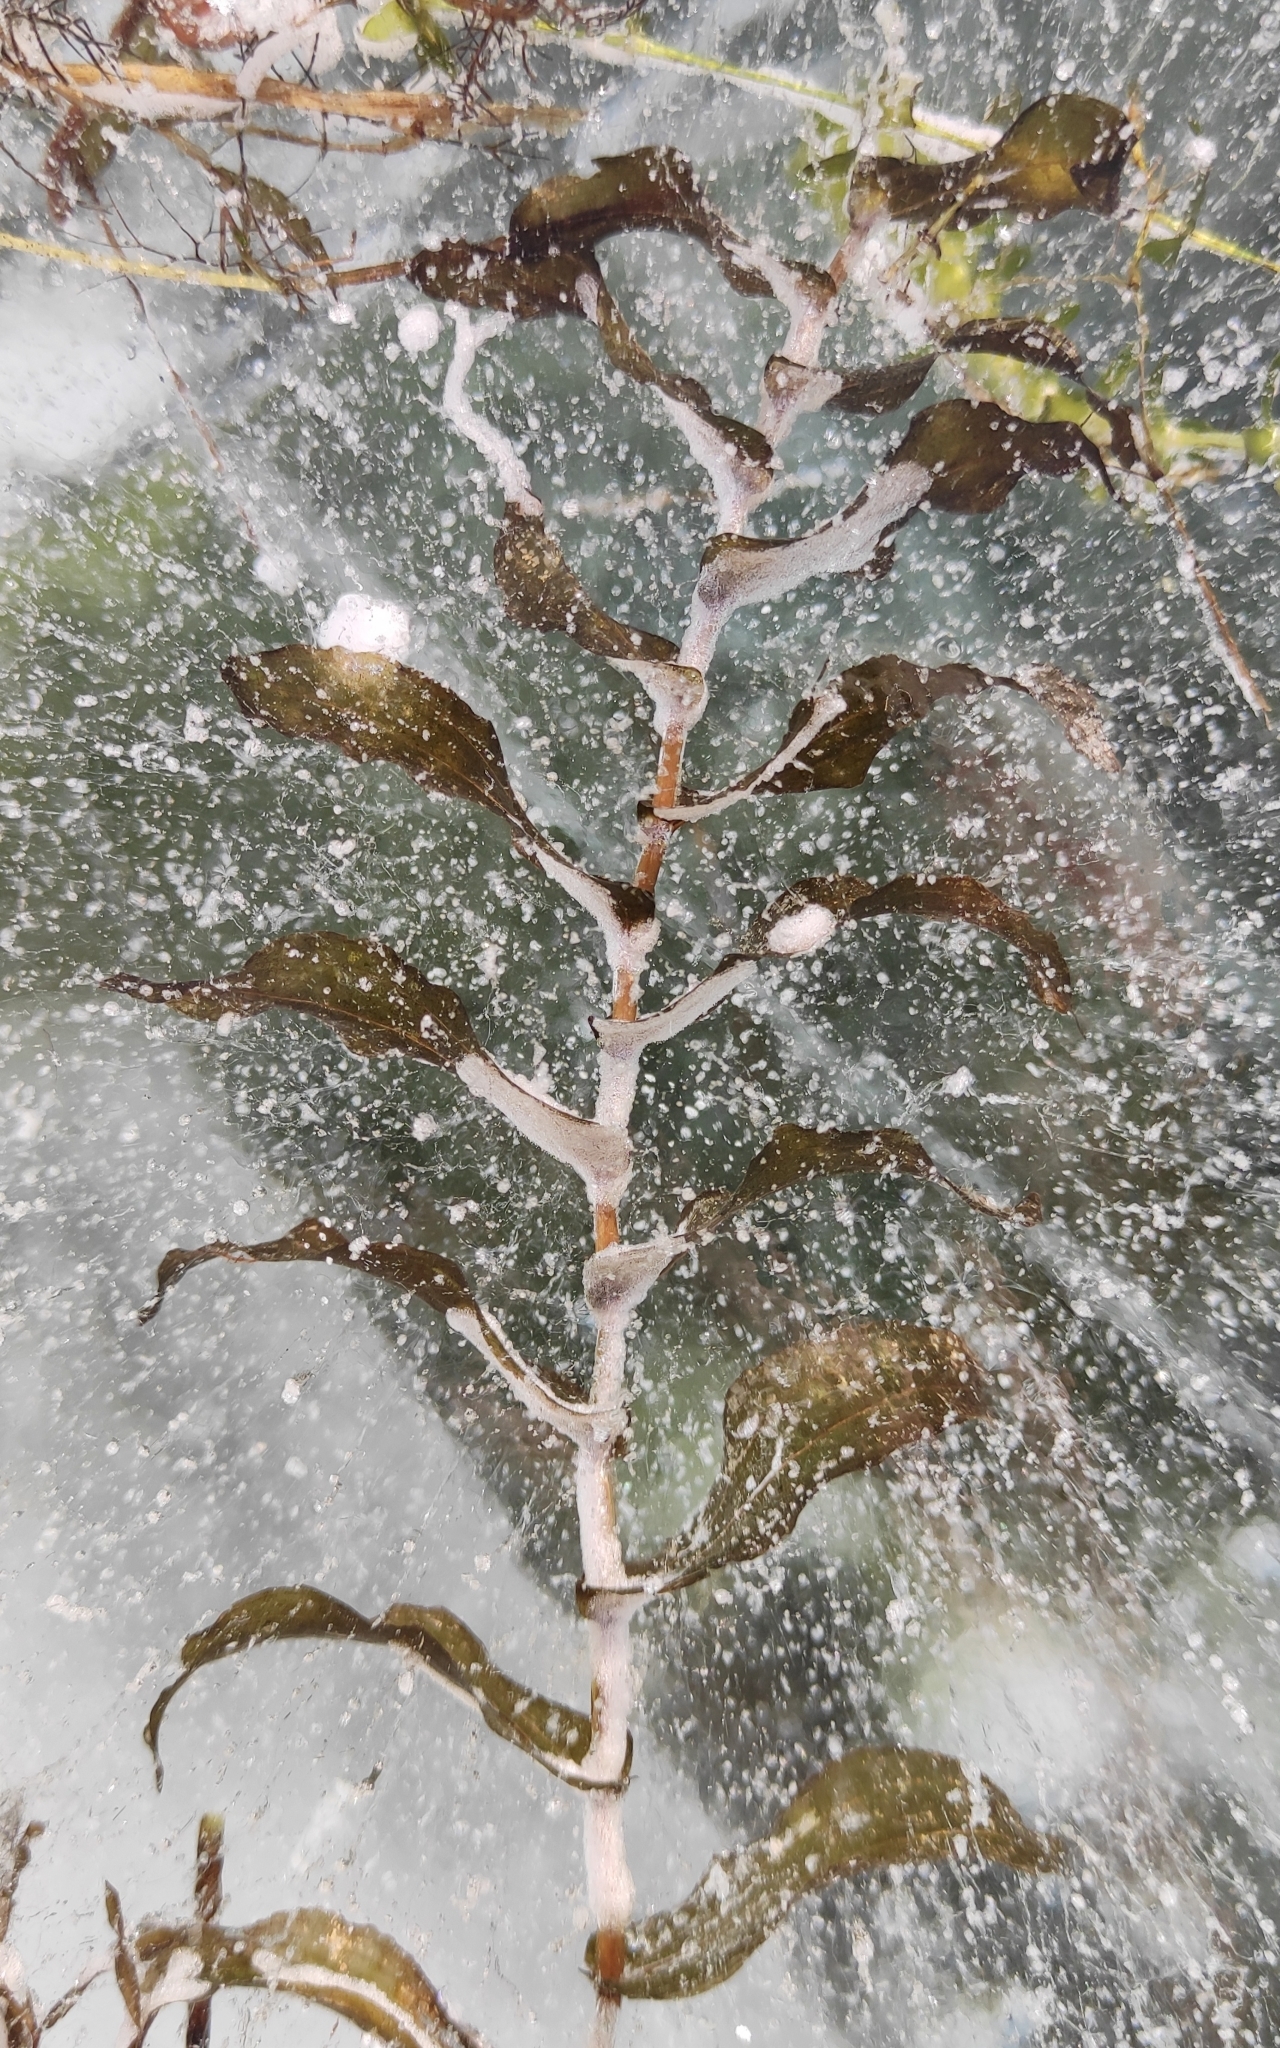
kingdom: Plantae
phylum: Tracheophyta
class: Liliopsida
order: Alismatales
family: Potamogetonaceae
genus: Potamogeton
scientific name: Potamogeton perfoliatus
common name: Perfoliate pondweed
